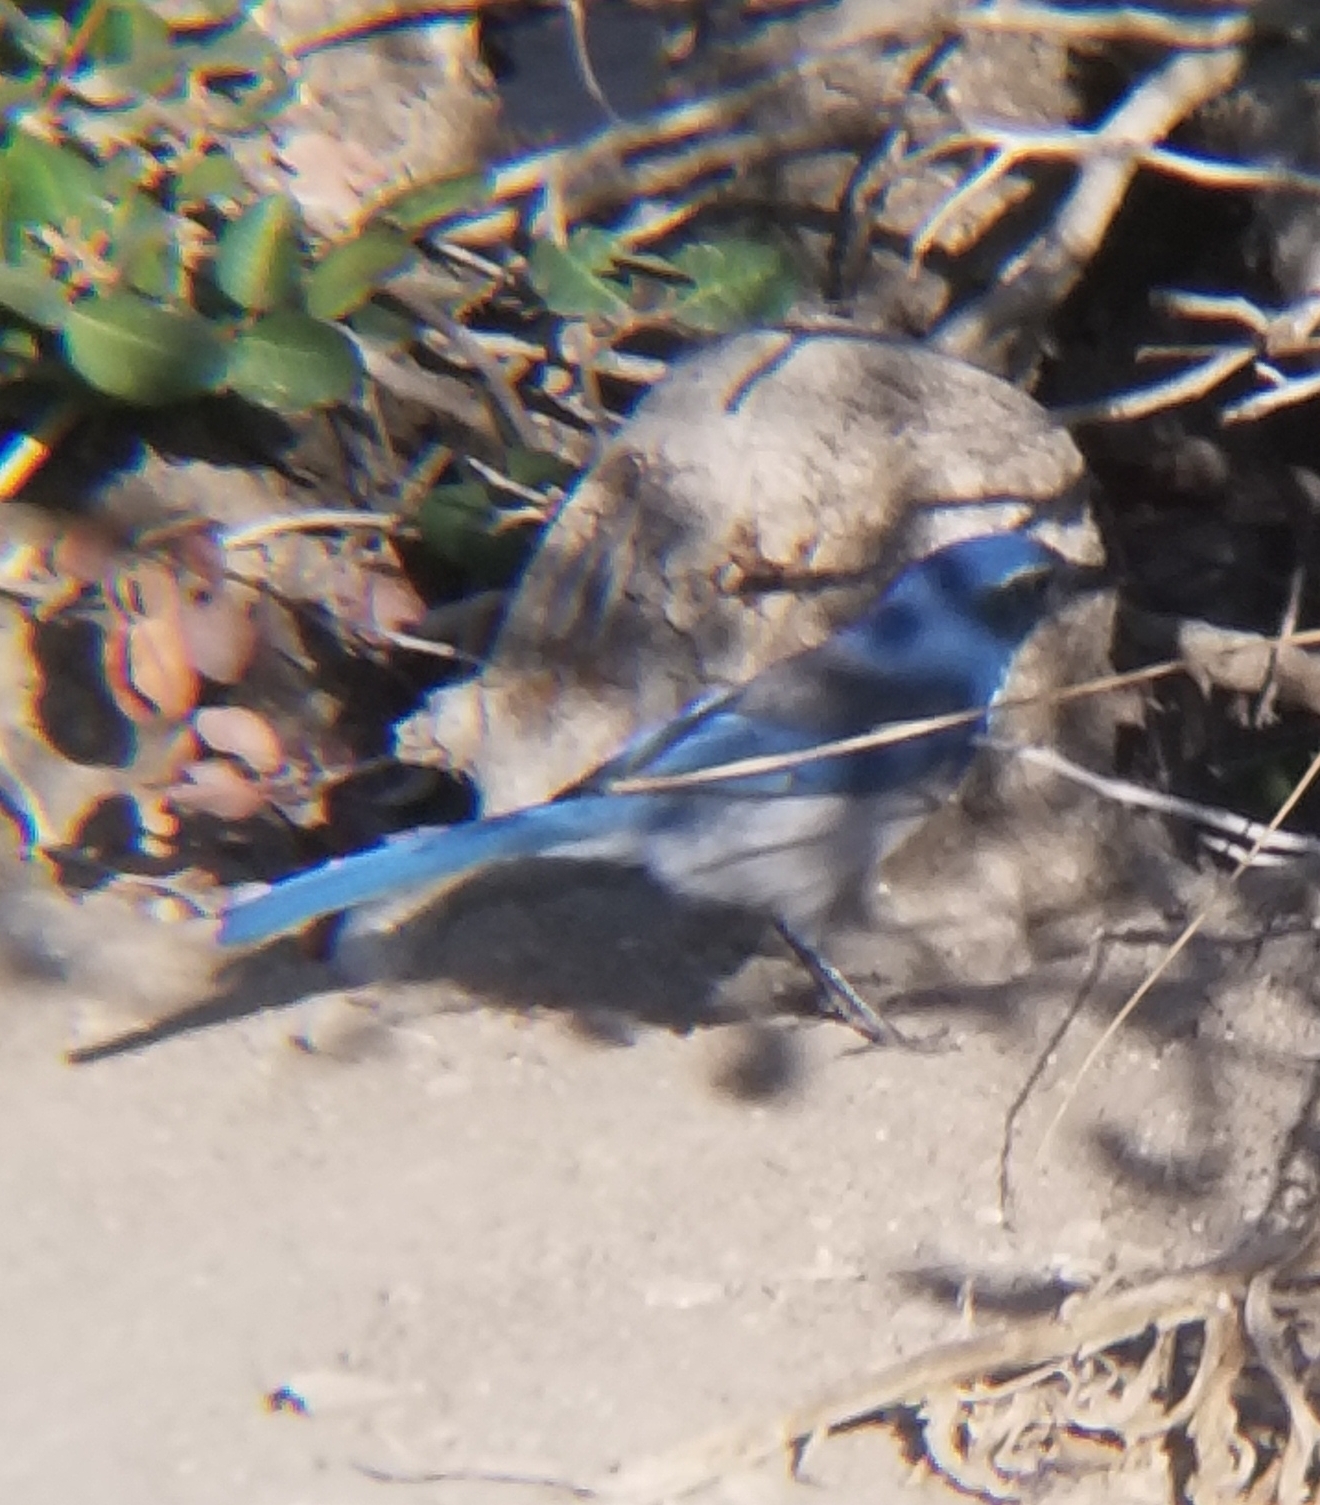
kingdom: Animalia
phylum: Chordata
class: Aves
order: Passeriformes
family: Corvidae
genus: Aphelocoma
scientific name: Aphelocoma californica
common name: California scrub-jay
